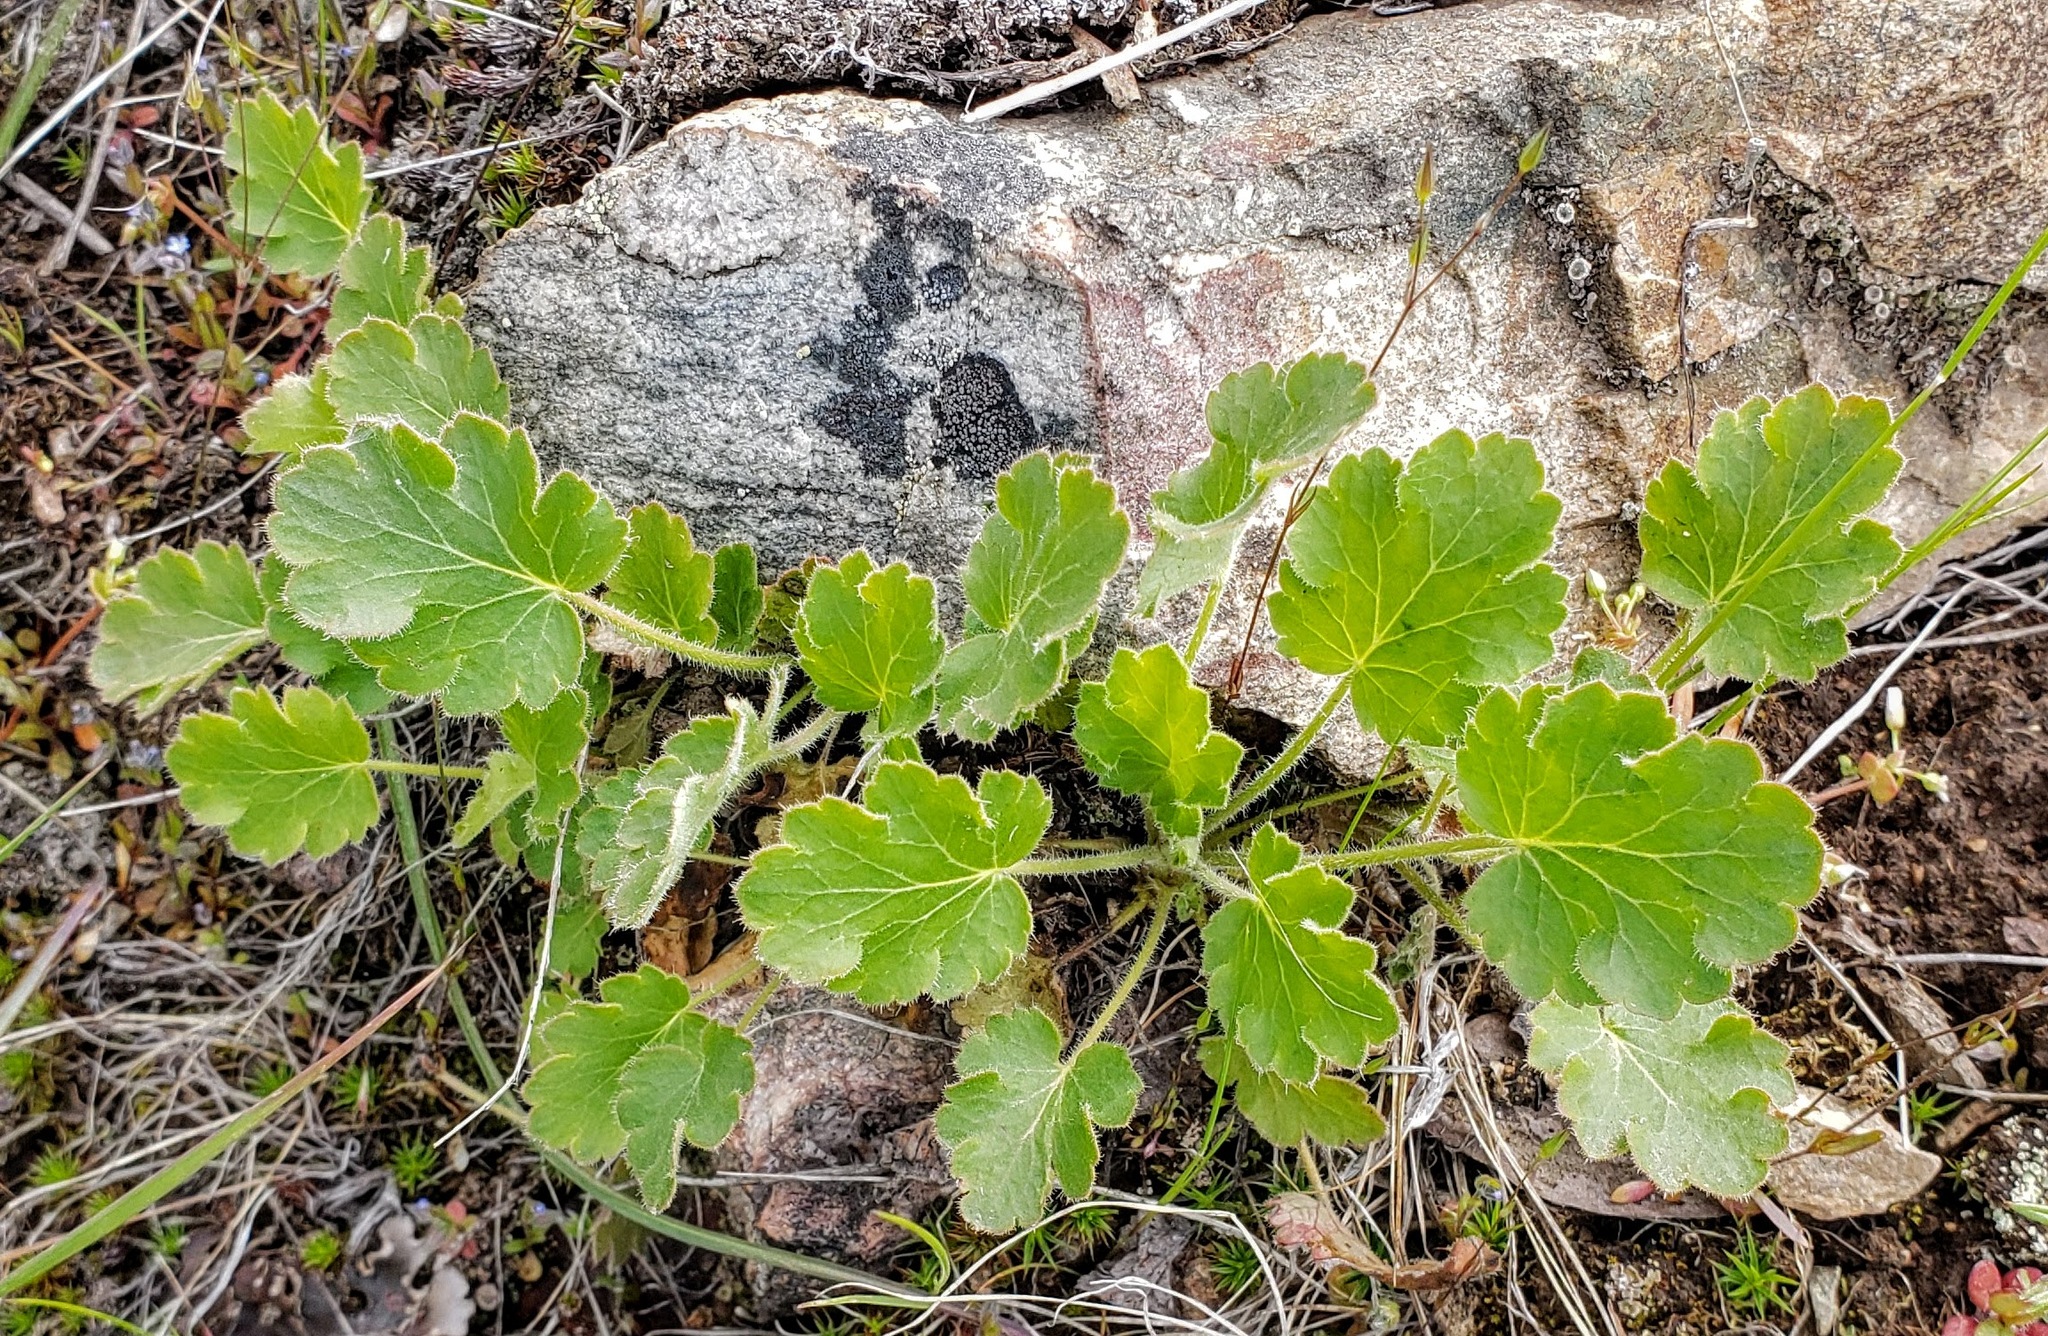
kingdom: Plantae
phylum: Tracheophyta
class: Magnoliopsida
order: Saxifragales
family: Saxifragaceae
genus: Heuchera
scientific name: Heuchera cylindrica
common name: Mat alumroot
